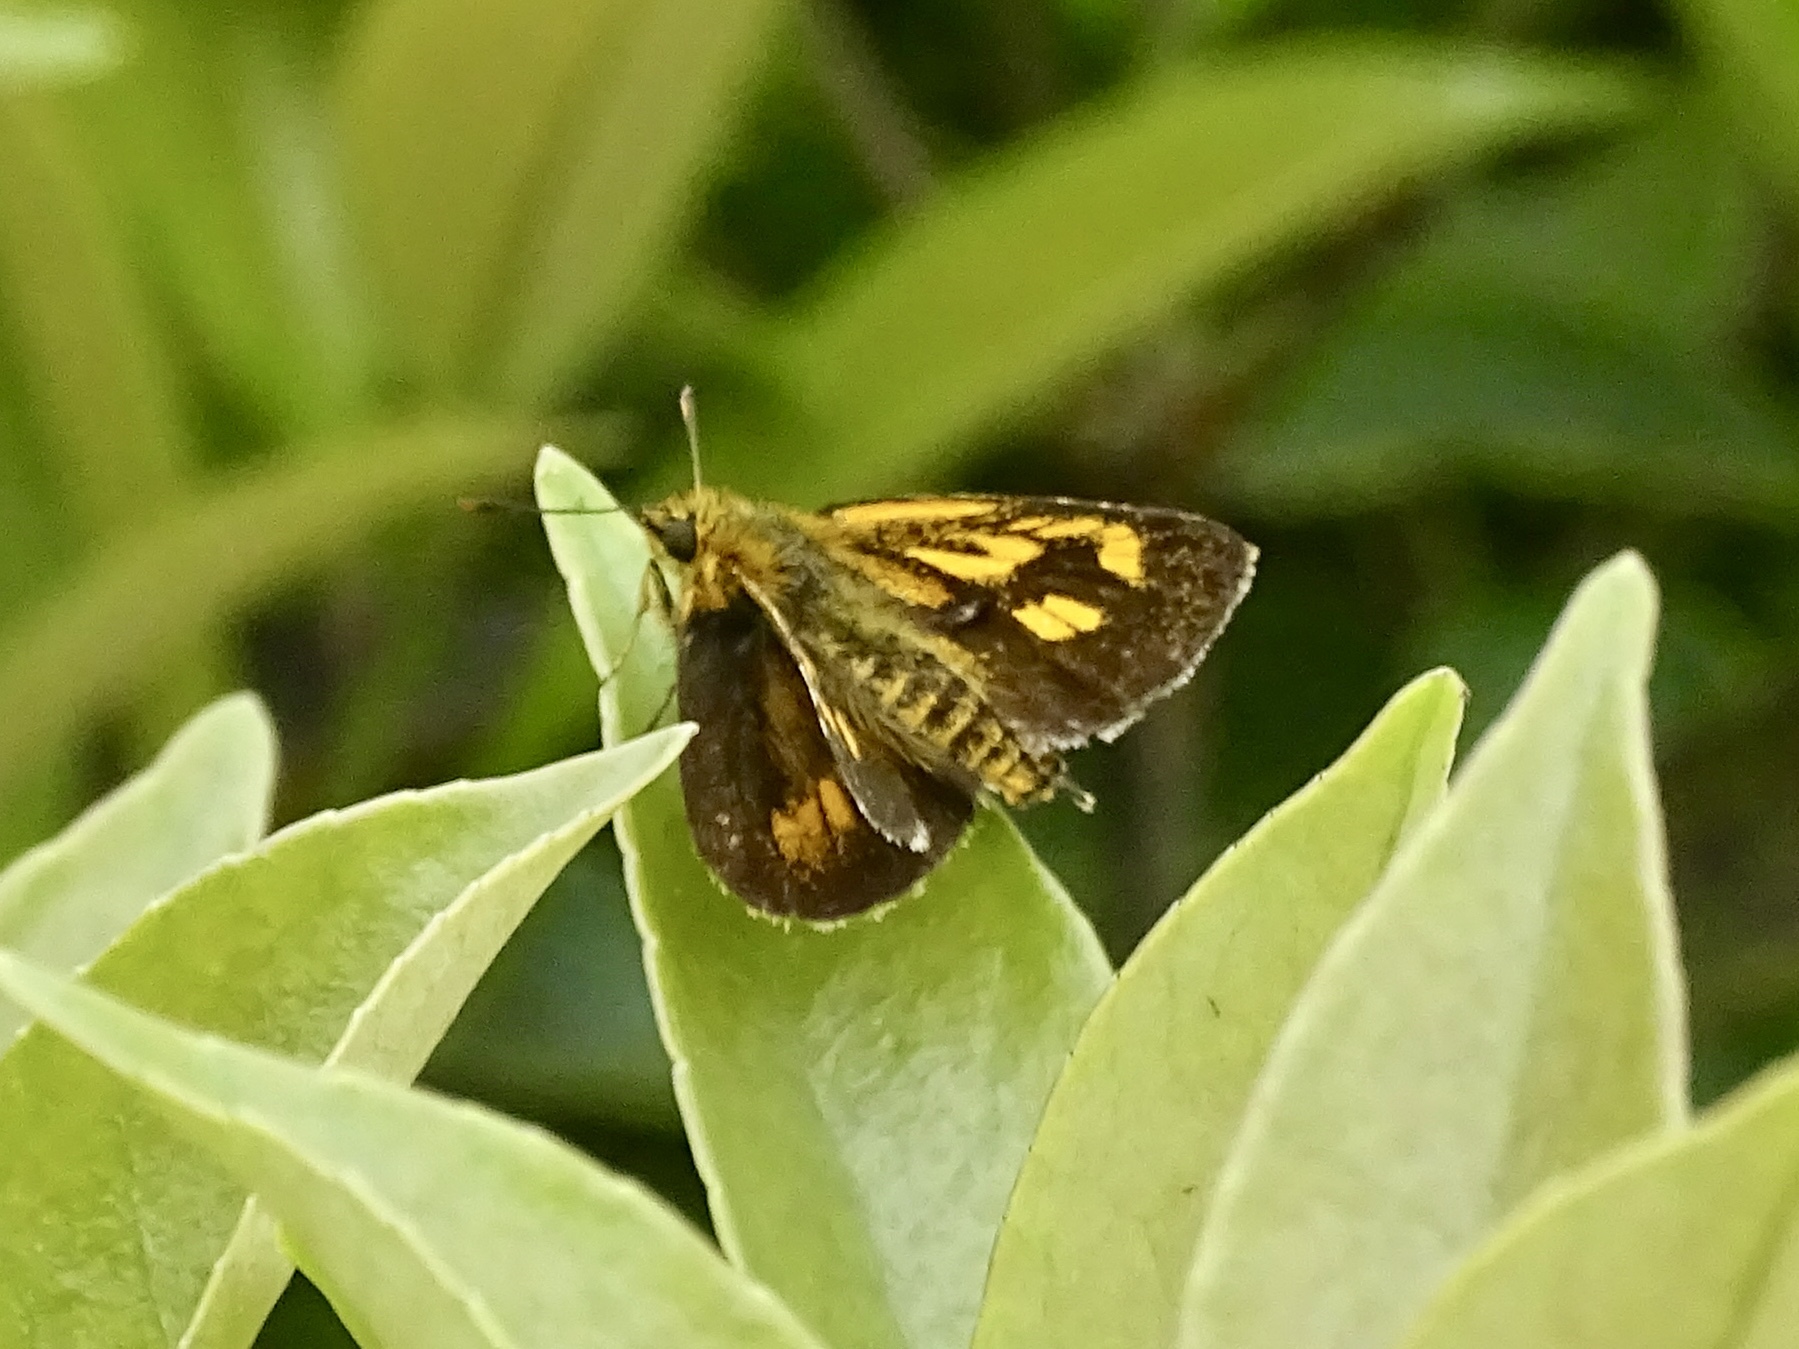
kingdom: Animalia
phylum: Arthropoda
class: Insecta
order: Lepidoptera
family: Hesperiidae
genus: Ampittia
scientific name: Ampittia virgata
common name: Striped bush hopper
